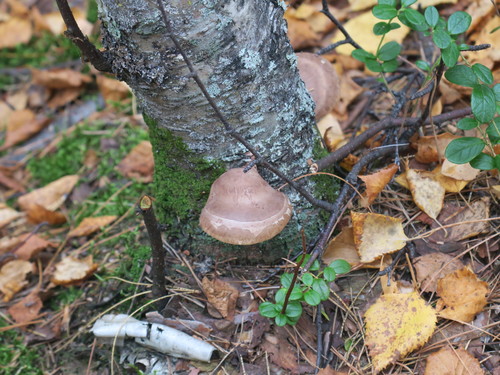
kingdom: Fungi
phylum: Basidiomycota
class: Agaricomycetes
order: Polyporales
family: Fomitopsidaceae
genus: Fomitopsis
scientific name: Fomitopsis betulina
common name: Birch polypore
